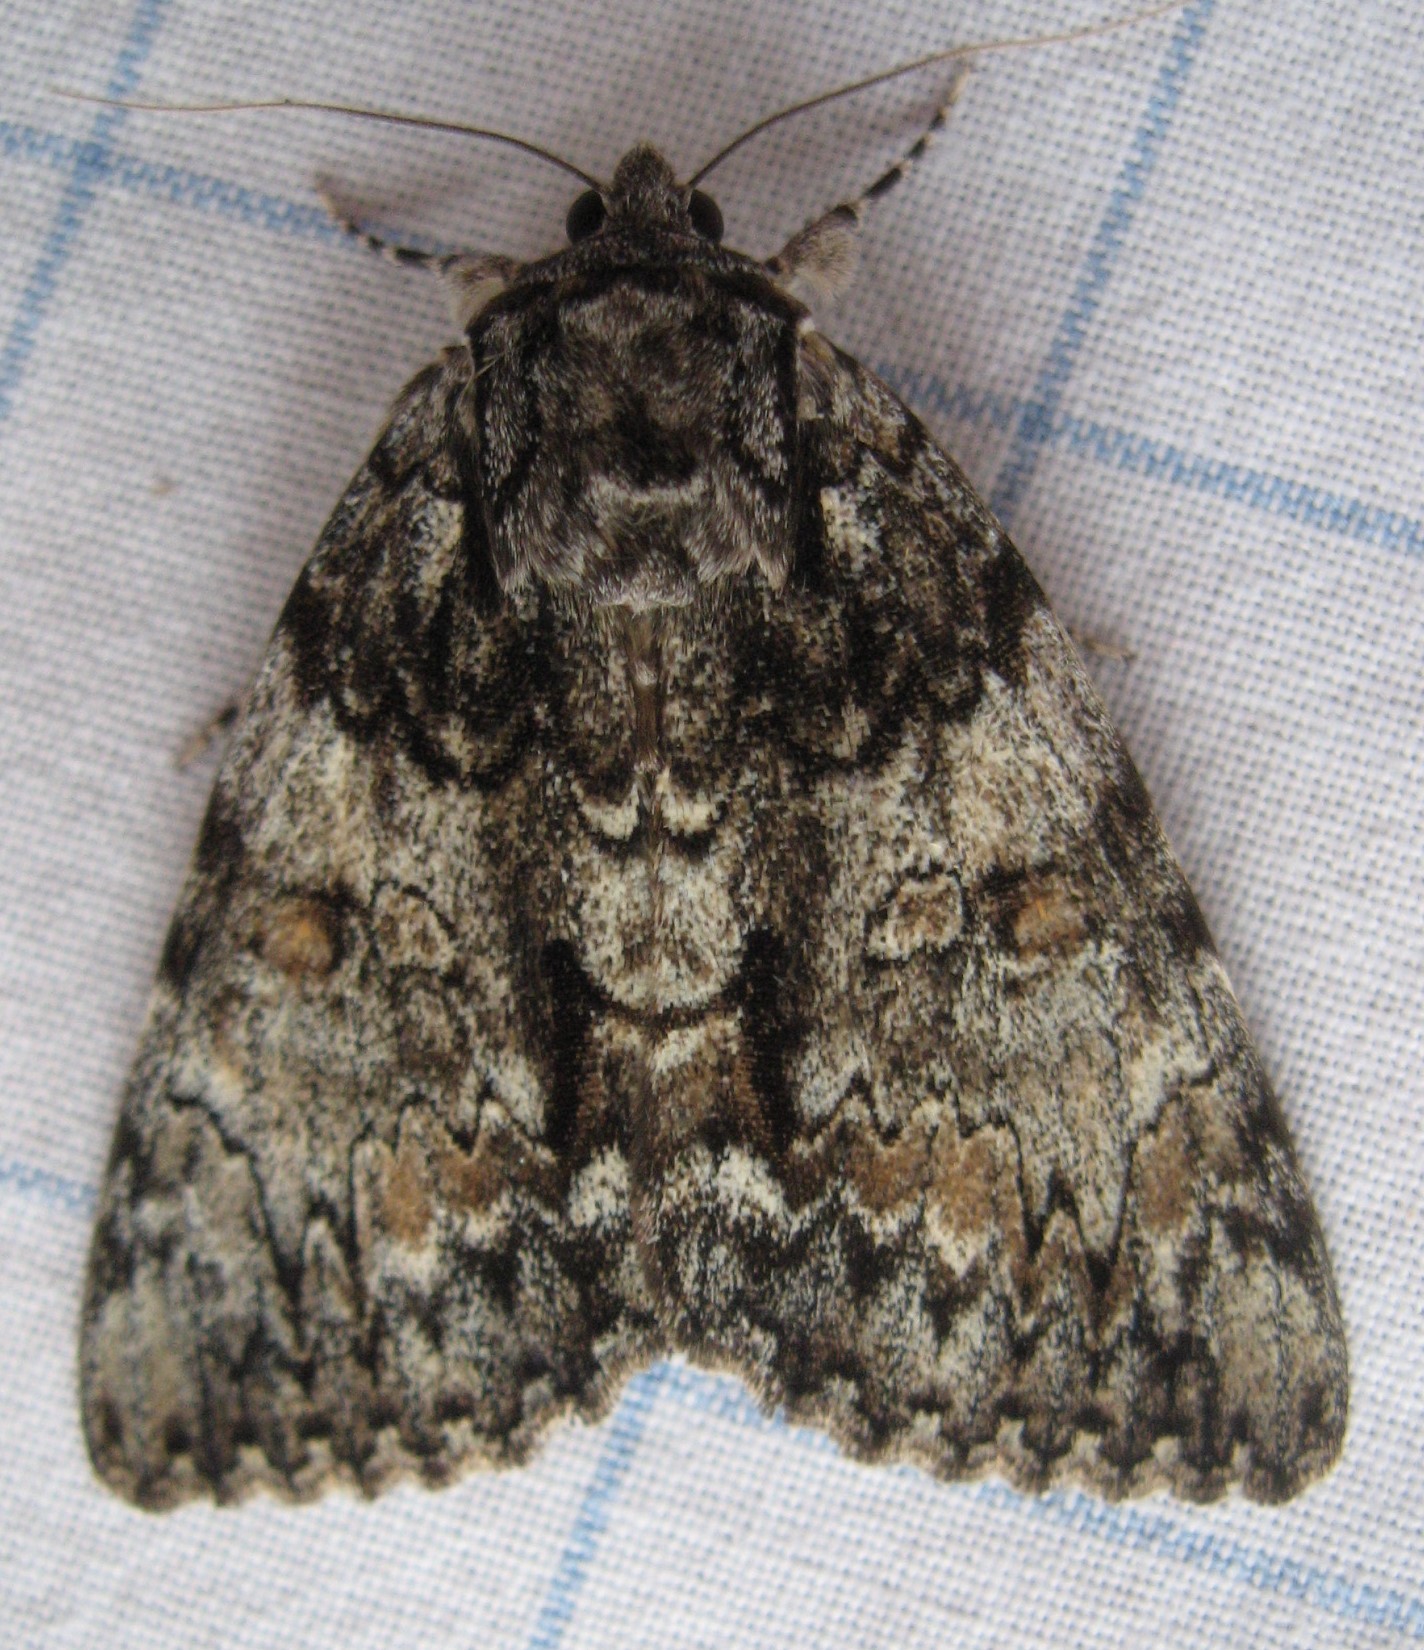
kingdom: Animalia
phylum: Arthropoda
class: Insecta
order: Lepidoptera
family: Erebidae
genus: Catocala
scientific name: Catocala palaeogama
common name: Oldwife underwing
